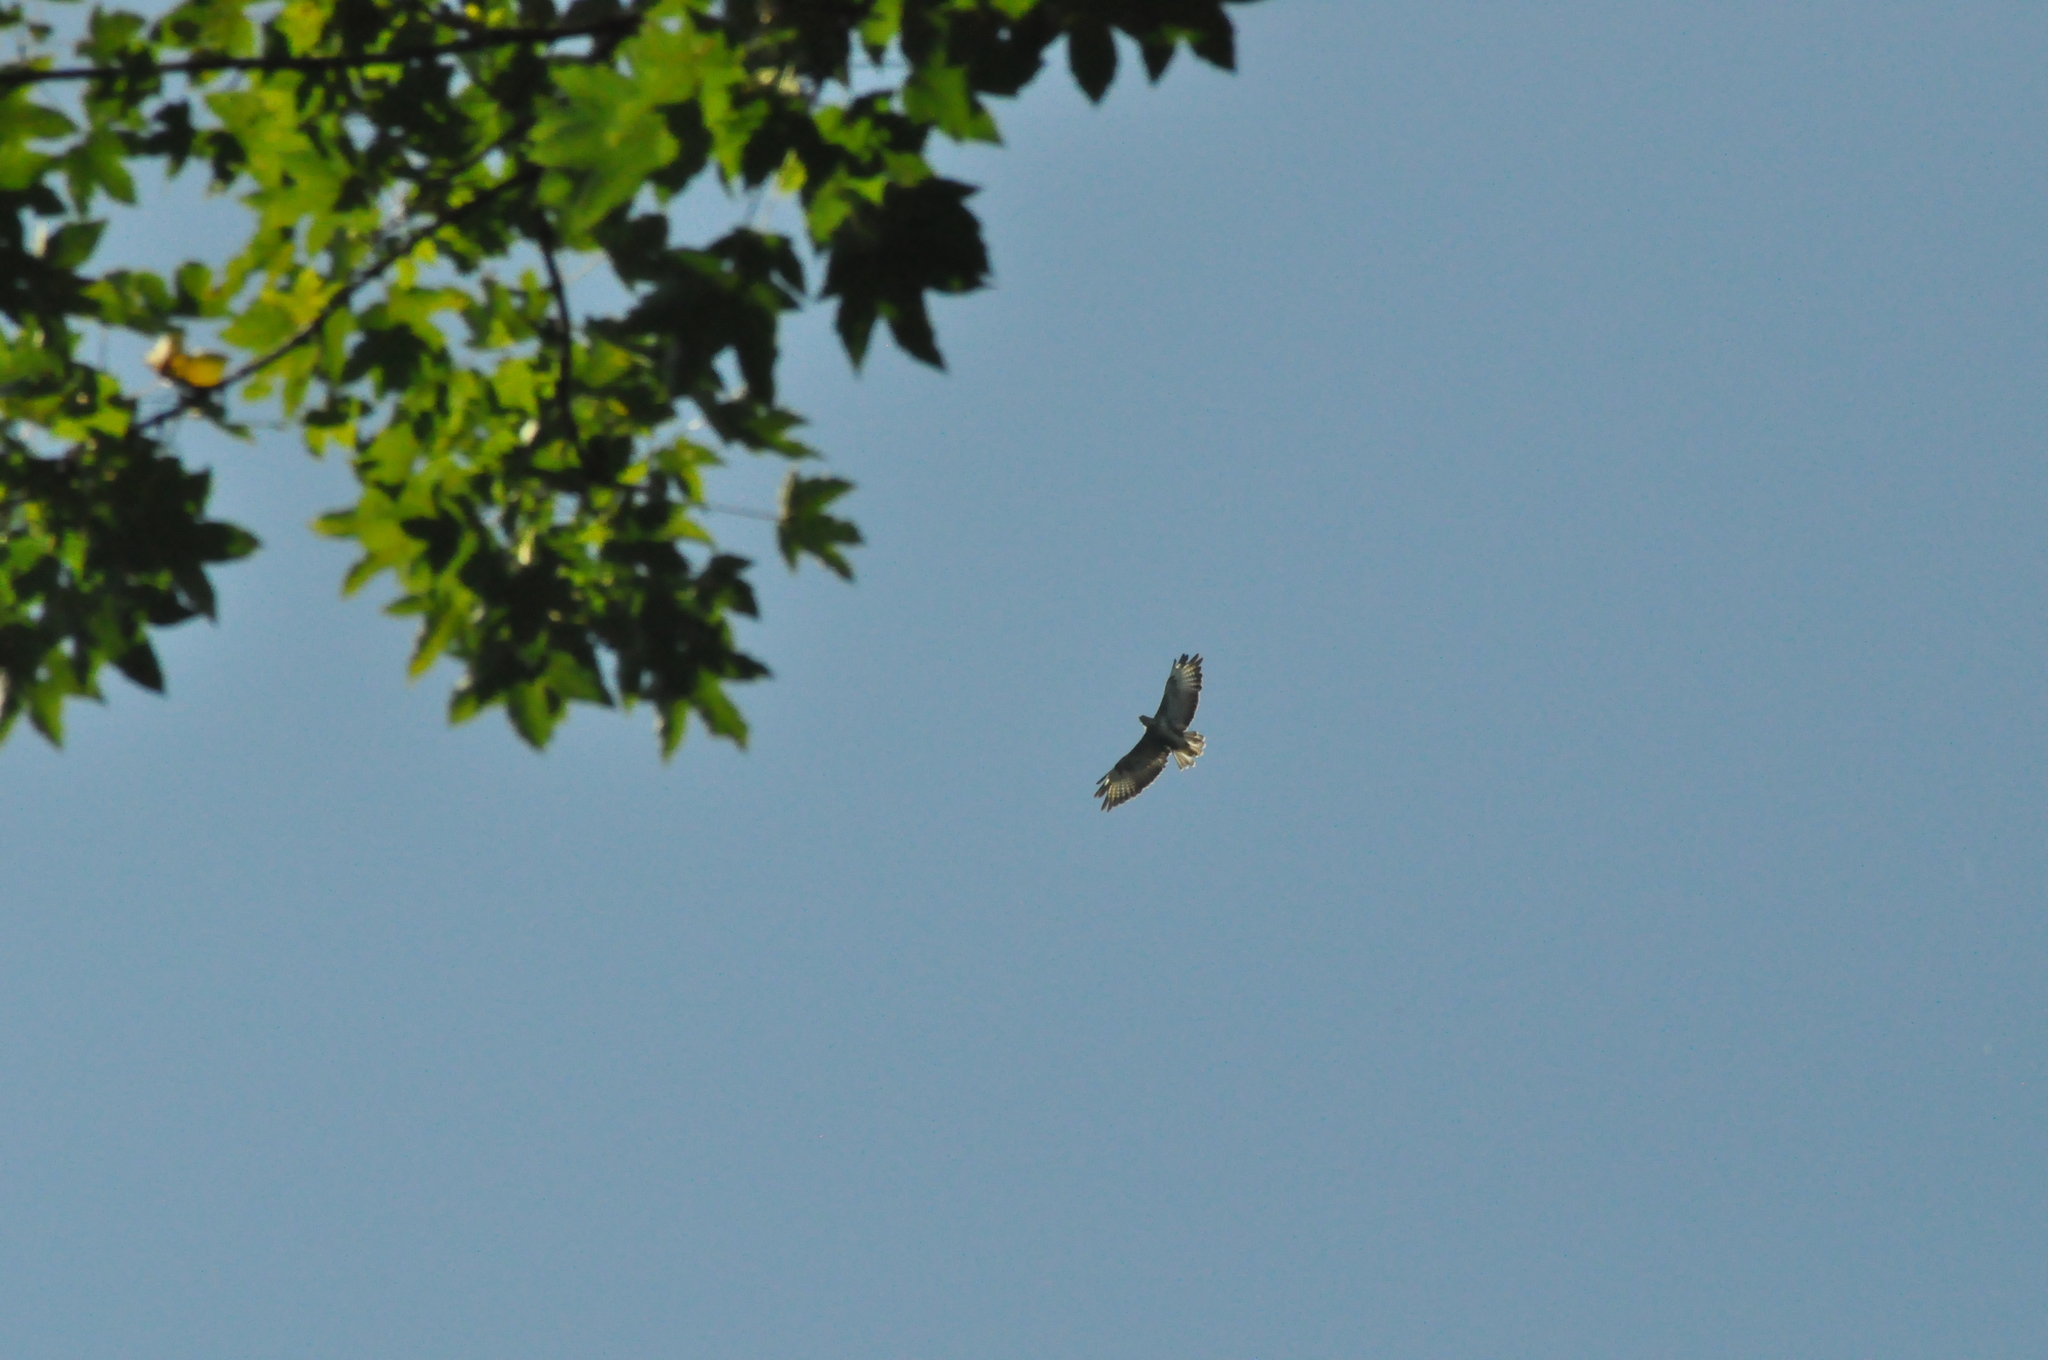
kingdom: Animalia
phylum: Chordata
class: Aves
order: Accipitriformes
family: Accipitridae
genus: Buteo
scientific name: Buteo buteo
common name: Common buzzard
